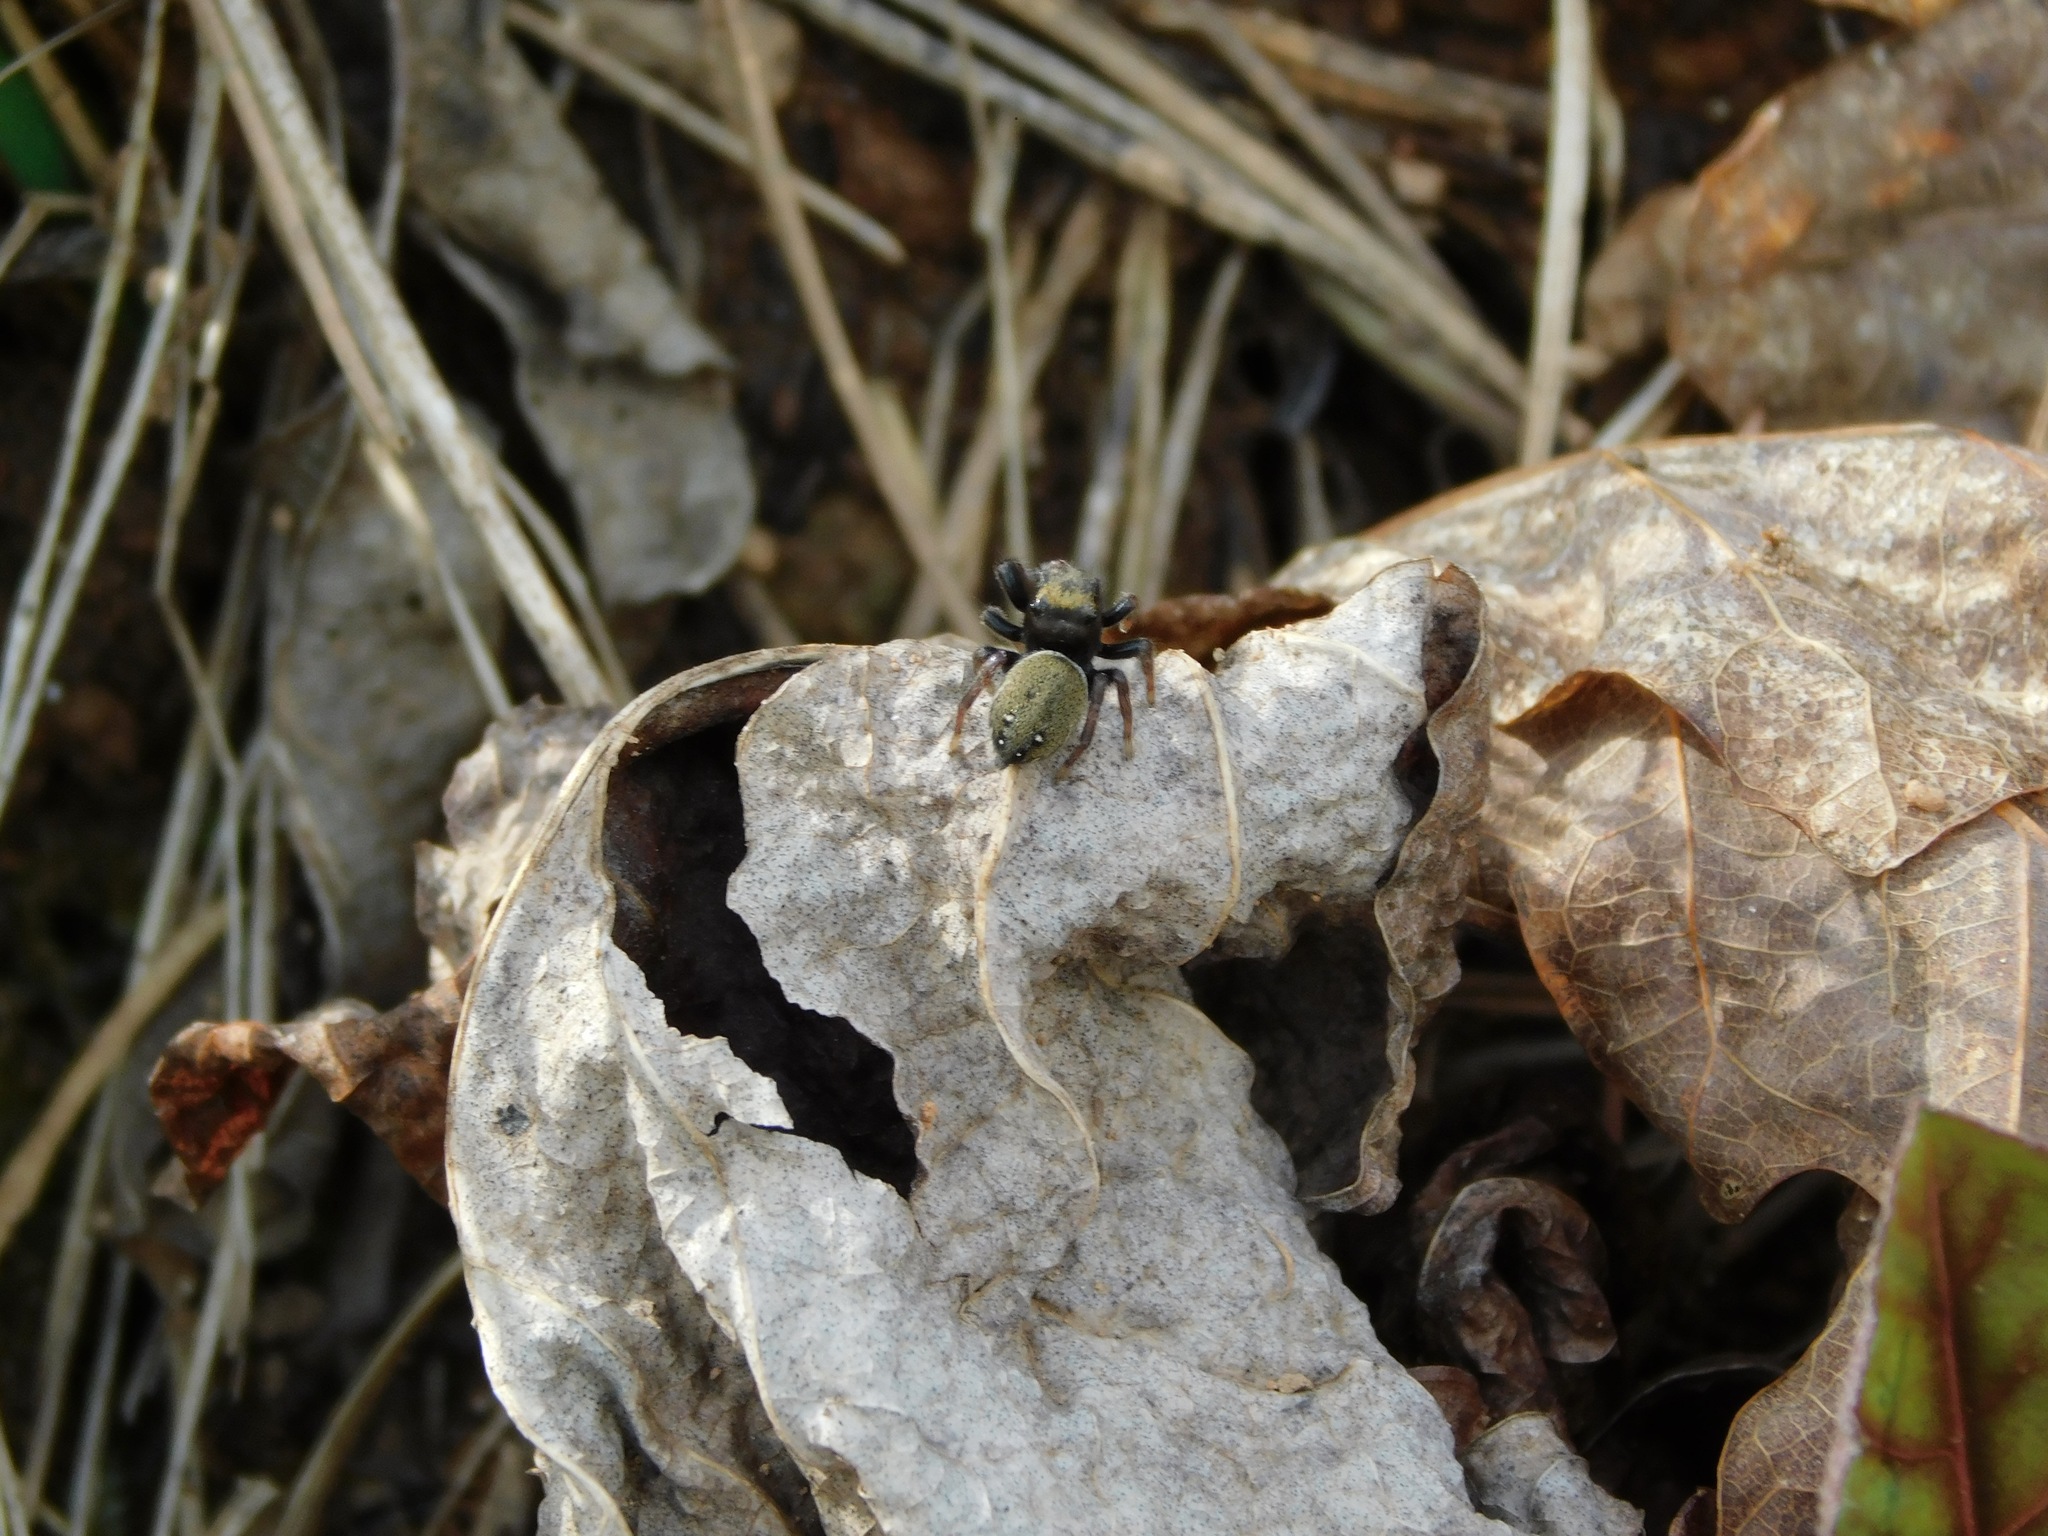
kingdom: Animalia
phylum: Arthropoda
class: Arachnida
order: Araneae
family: Salticidae
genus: Chinattus
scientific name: Chinattus parvulus
